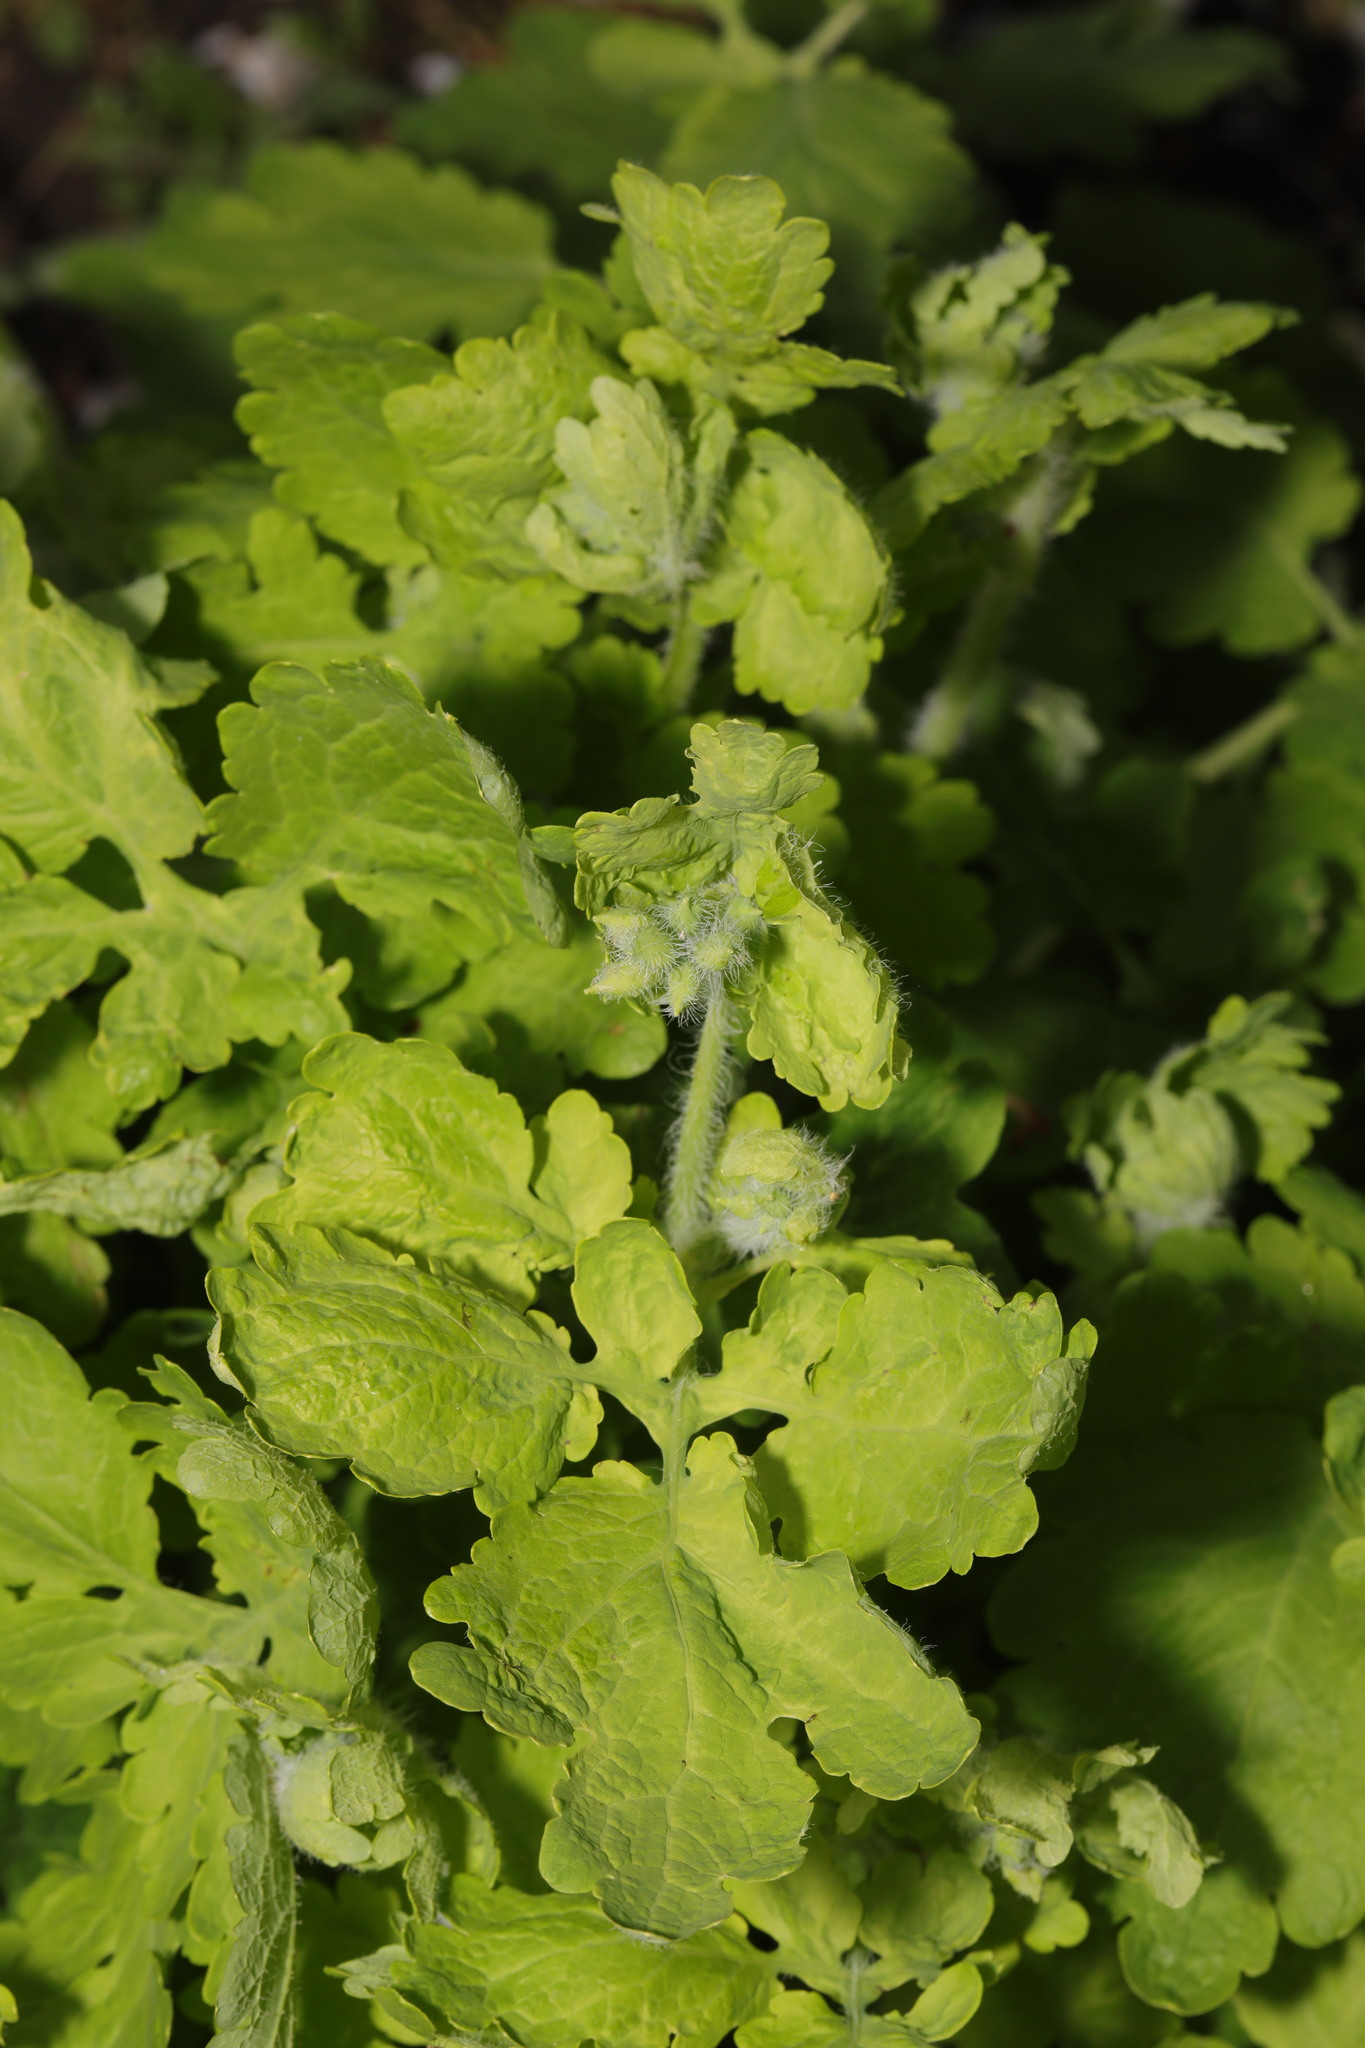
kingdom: Plantae
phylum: Tracheophyta
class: Magnoliopsida
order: Ranunculales
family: Papaveraceae
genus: Chelidonium
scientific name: Chelidonium majus
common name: Greater celandine
